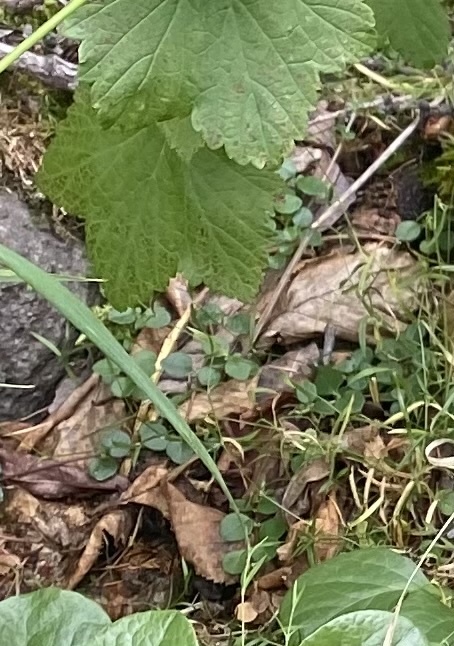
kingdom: Plantae
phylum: Tracheophyta
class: Magnoliopsida
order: Dipsacales
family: Caprifoliaceae
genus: Linnaea
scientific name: Linnaea borealis
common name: Twinflower
